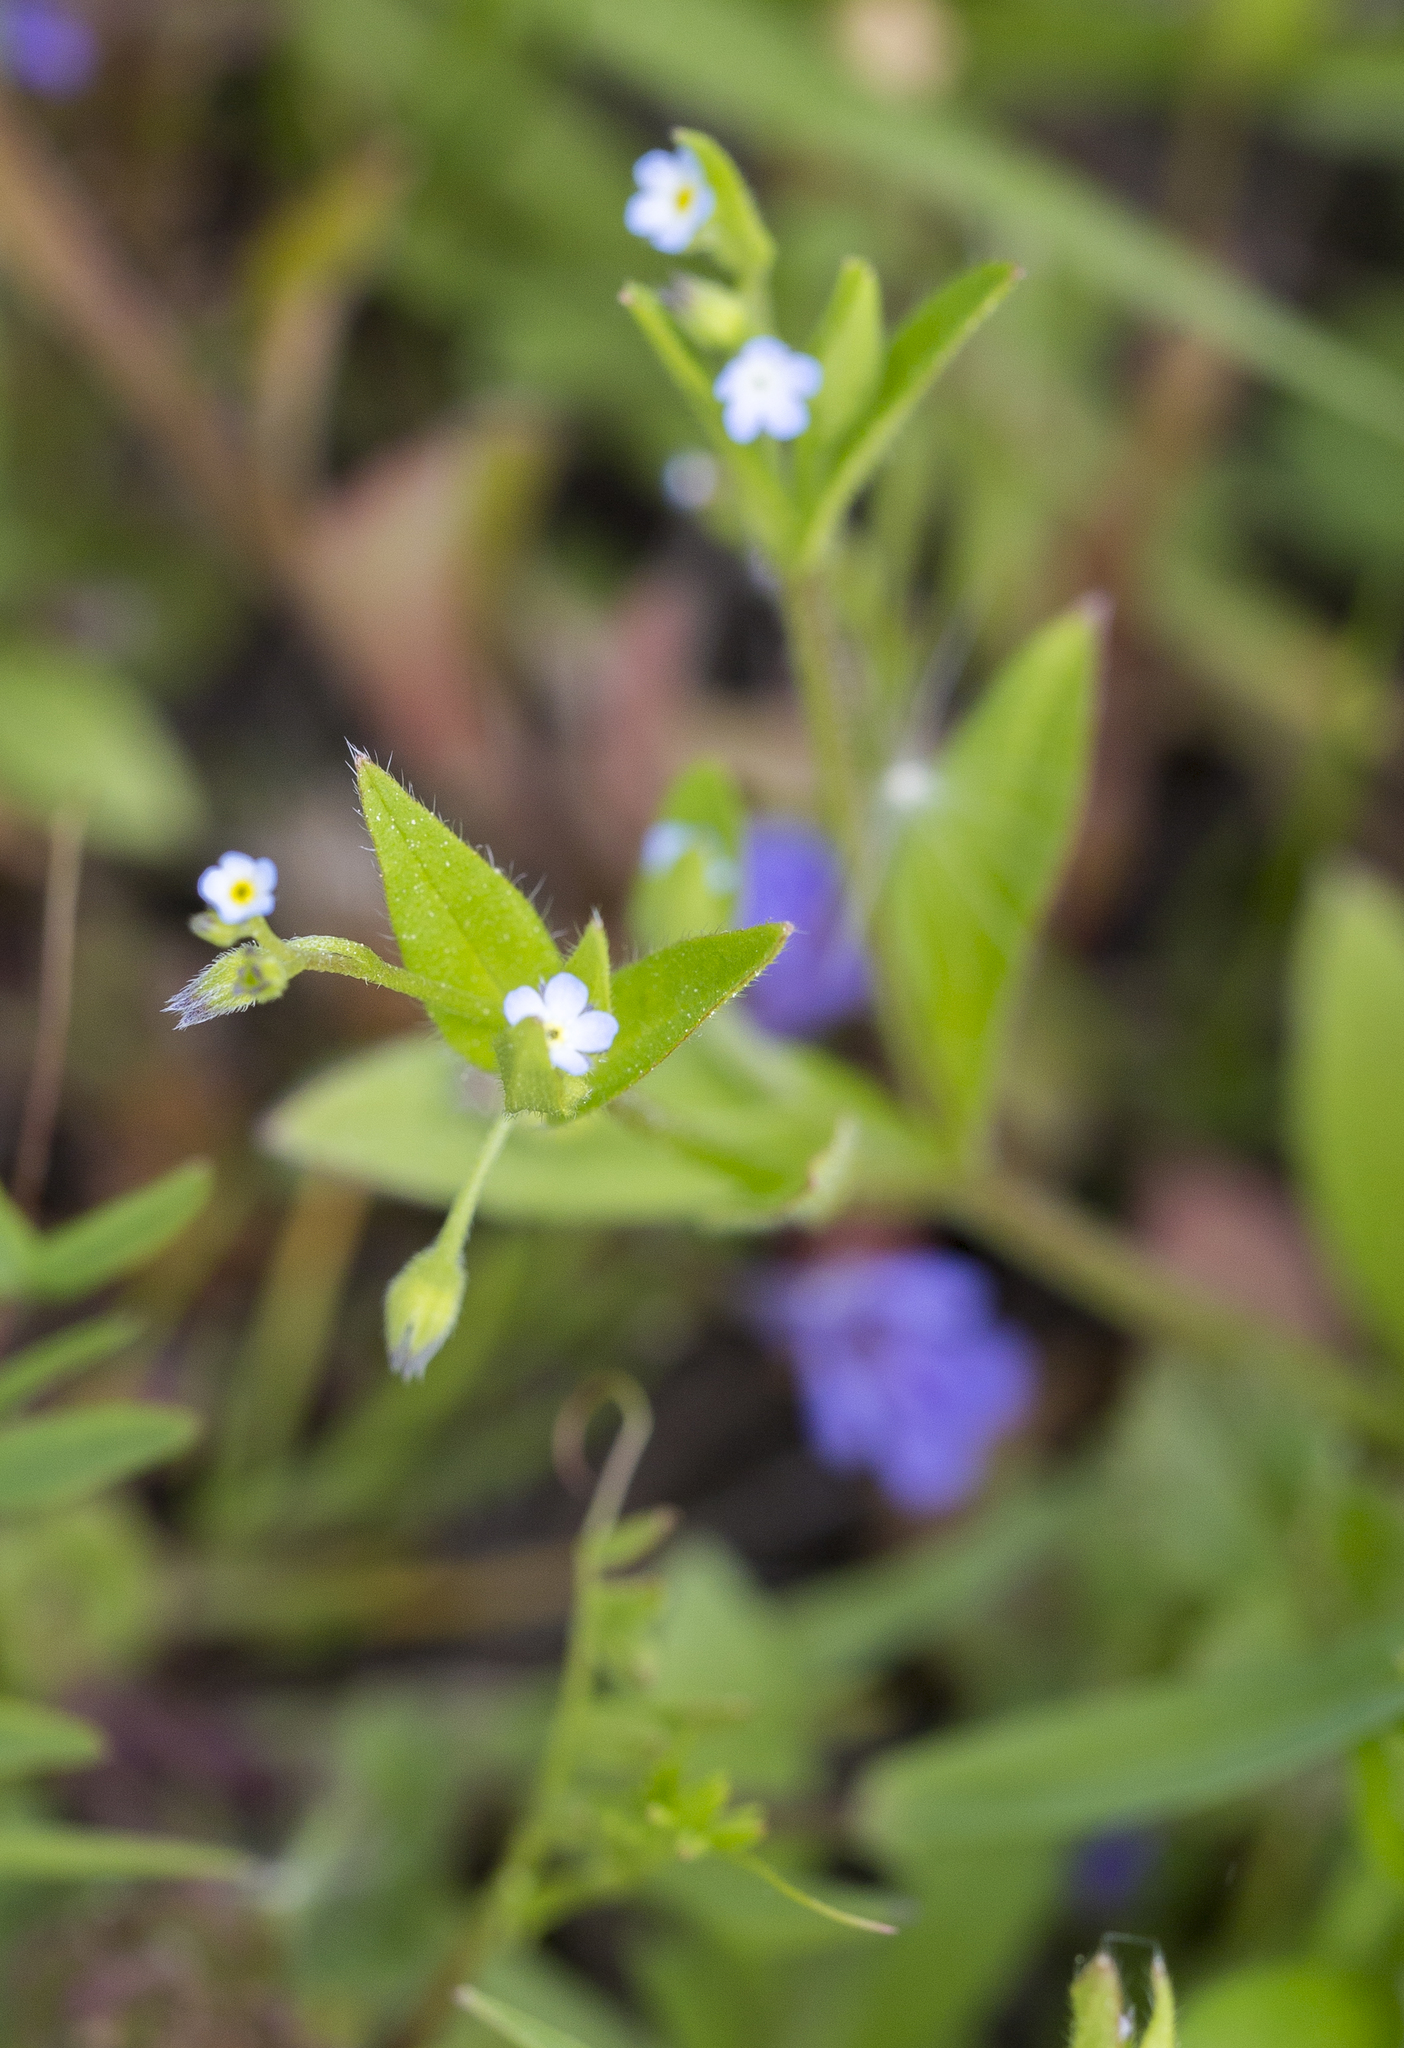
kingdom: Plantae
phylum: Tracheophyta
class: Magnoliopsida
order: Boraginales
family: Boraginaceae
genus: Myosotis
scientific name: Myosotis sparsiflora
